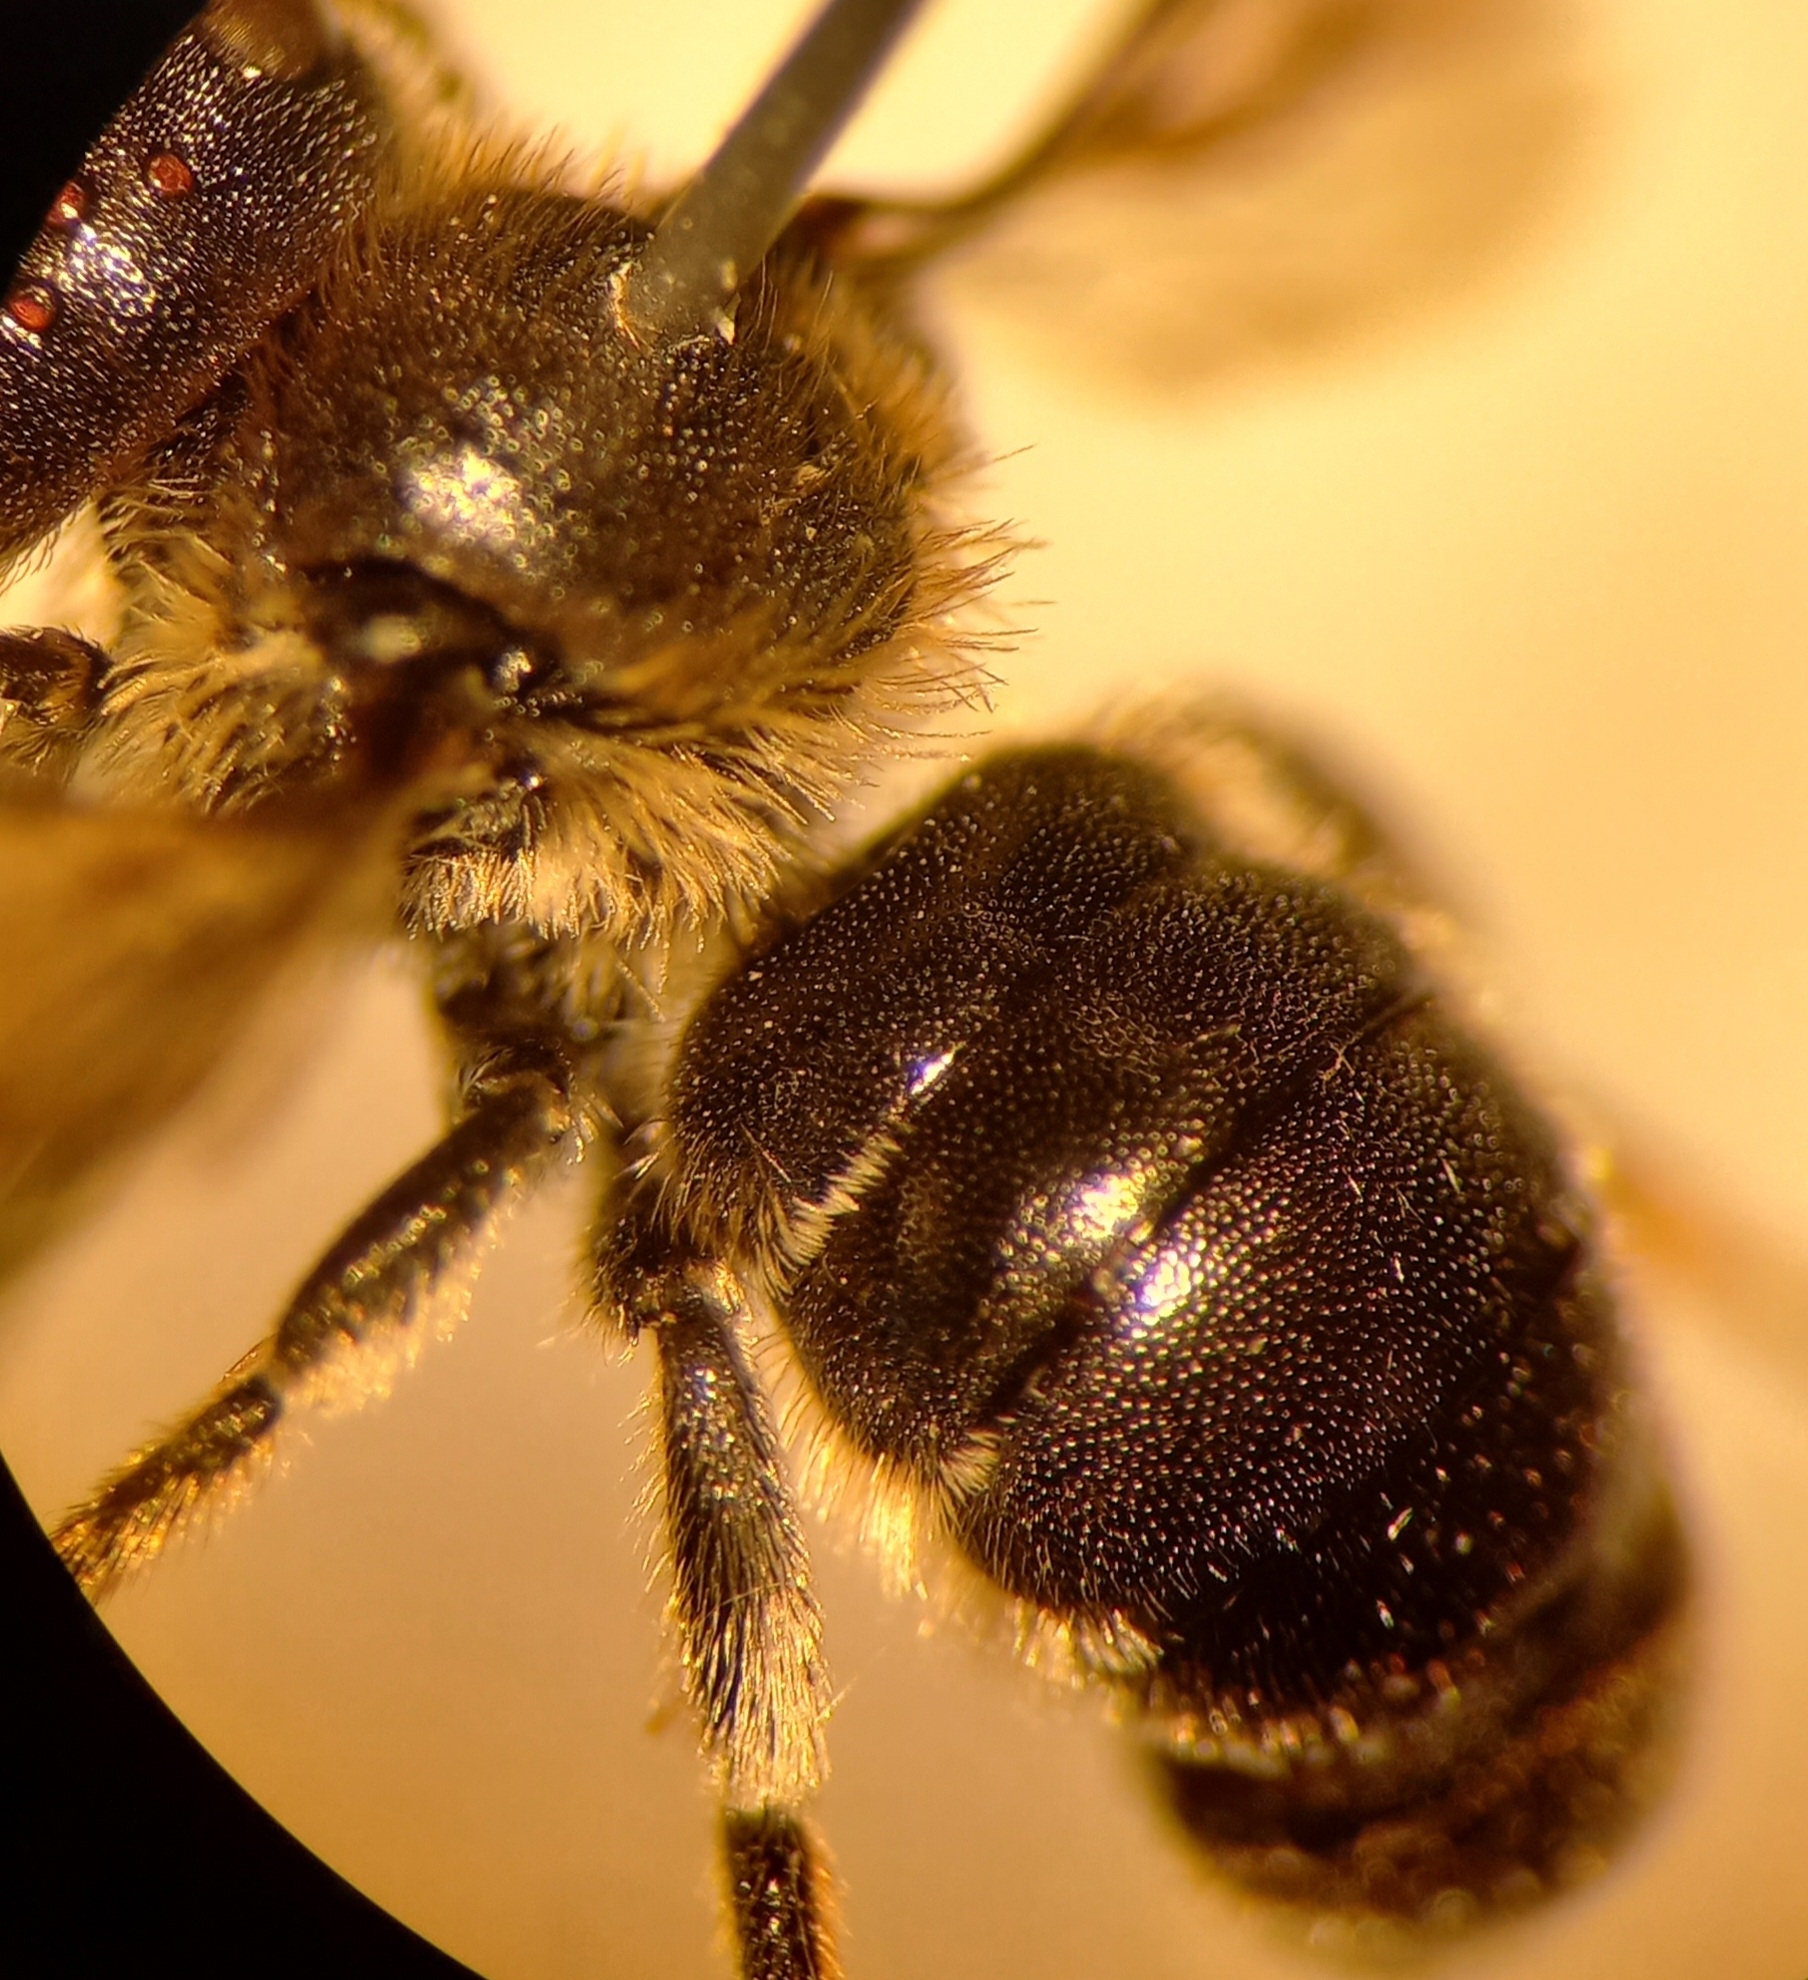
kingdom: Animalia
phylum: Arthropoda
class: Insecta
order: Hymenoptera
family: Megachilidae
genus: Osmia
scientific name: Osmia spinulosa
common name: Spined mason bee
